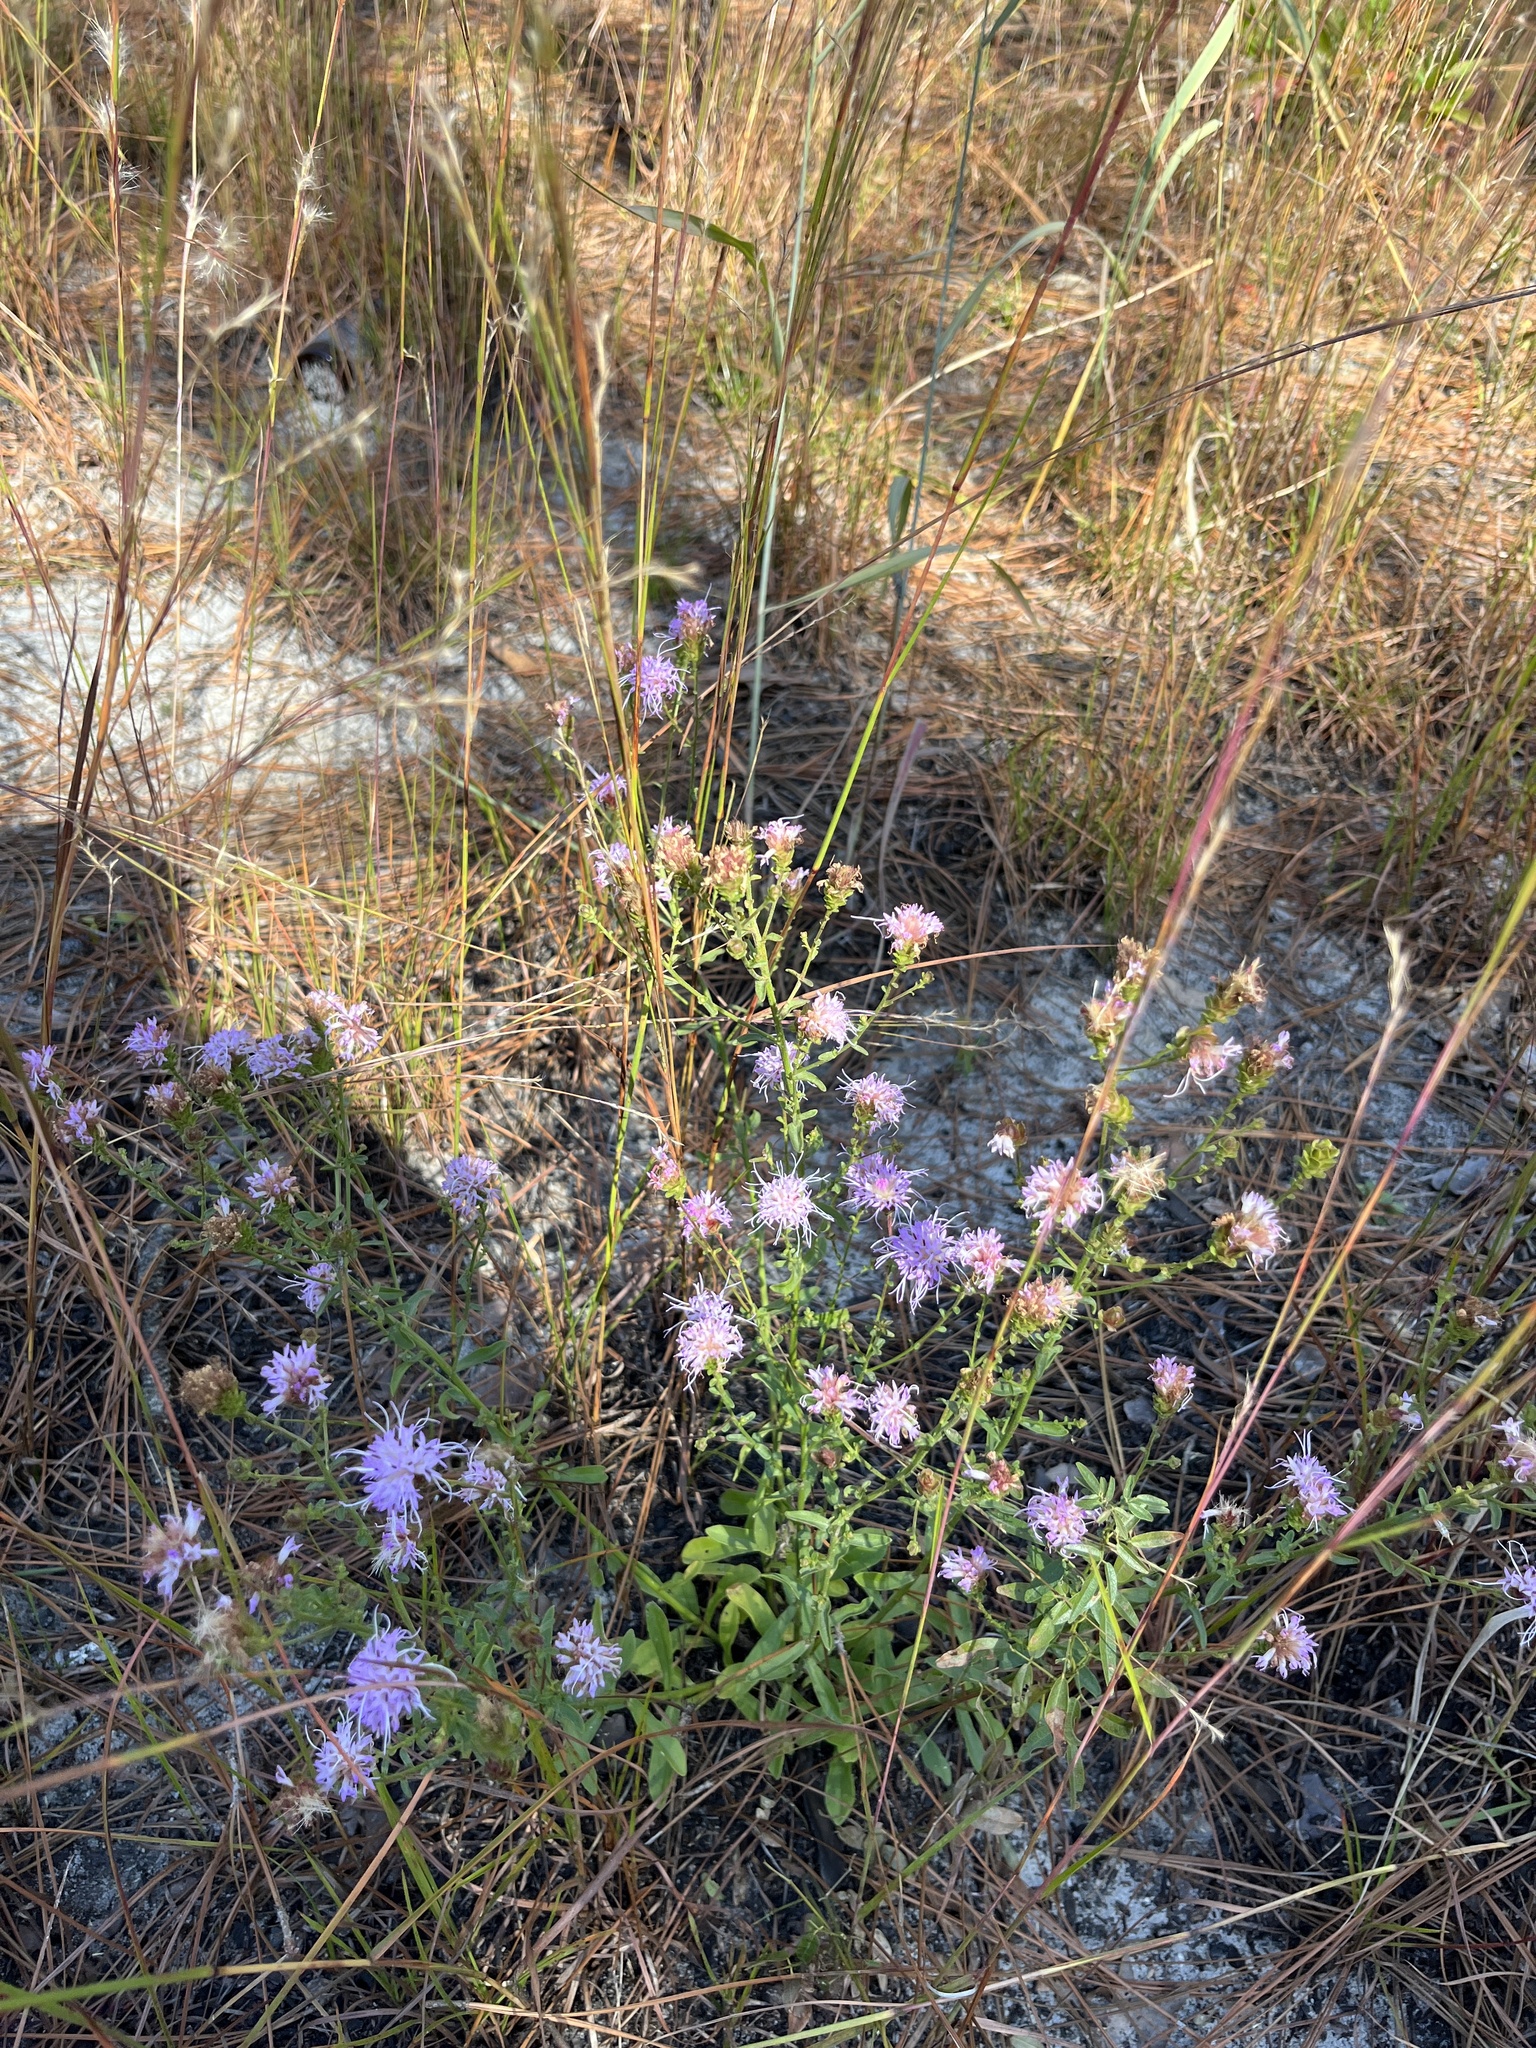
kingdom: Plantae
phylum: Tracheophyta
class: Magnoliopsida
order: Asterales
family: Asteraceae
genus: Carphephorus
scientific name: Carphephorus bellidifolius
